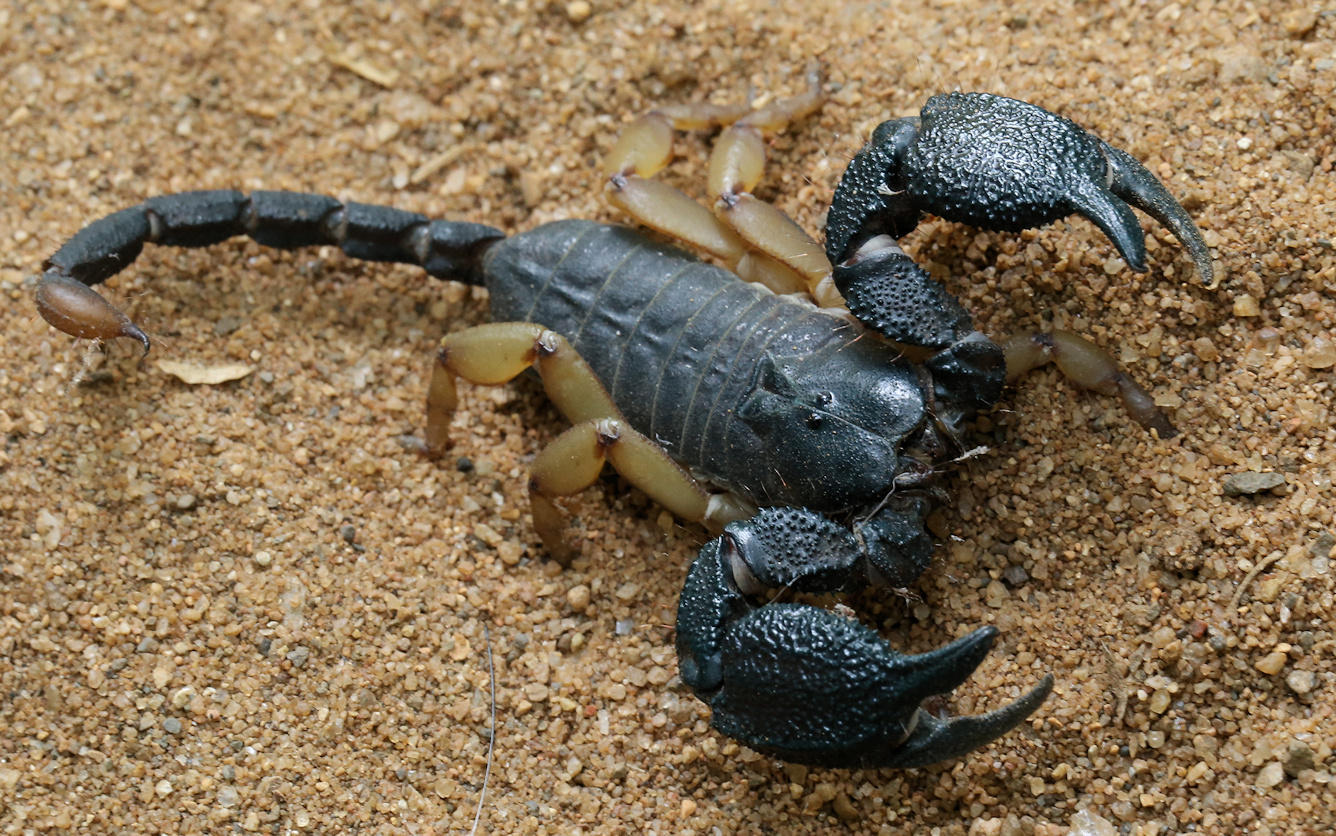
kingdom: Animalia
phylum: Arthropoda
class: Arachnida
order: Scorpiones
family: Hormuridae
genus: Opisthacanthus
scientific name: Opisthacanthus asper
